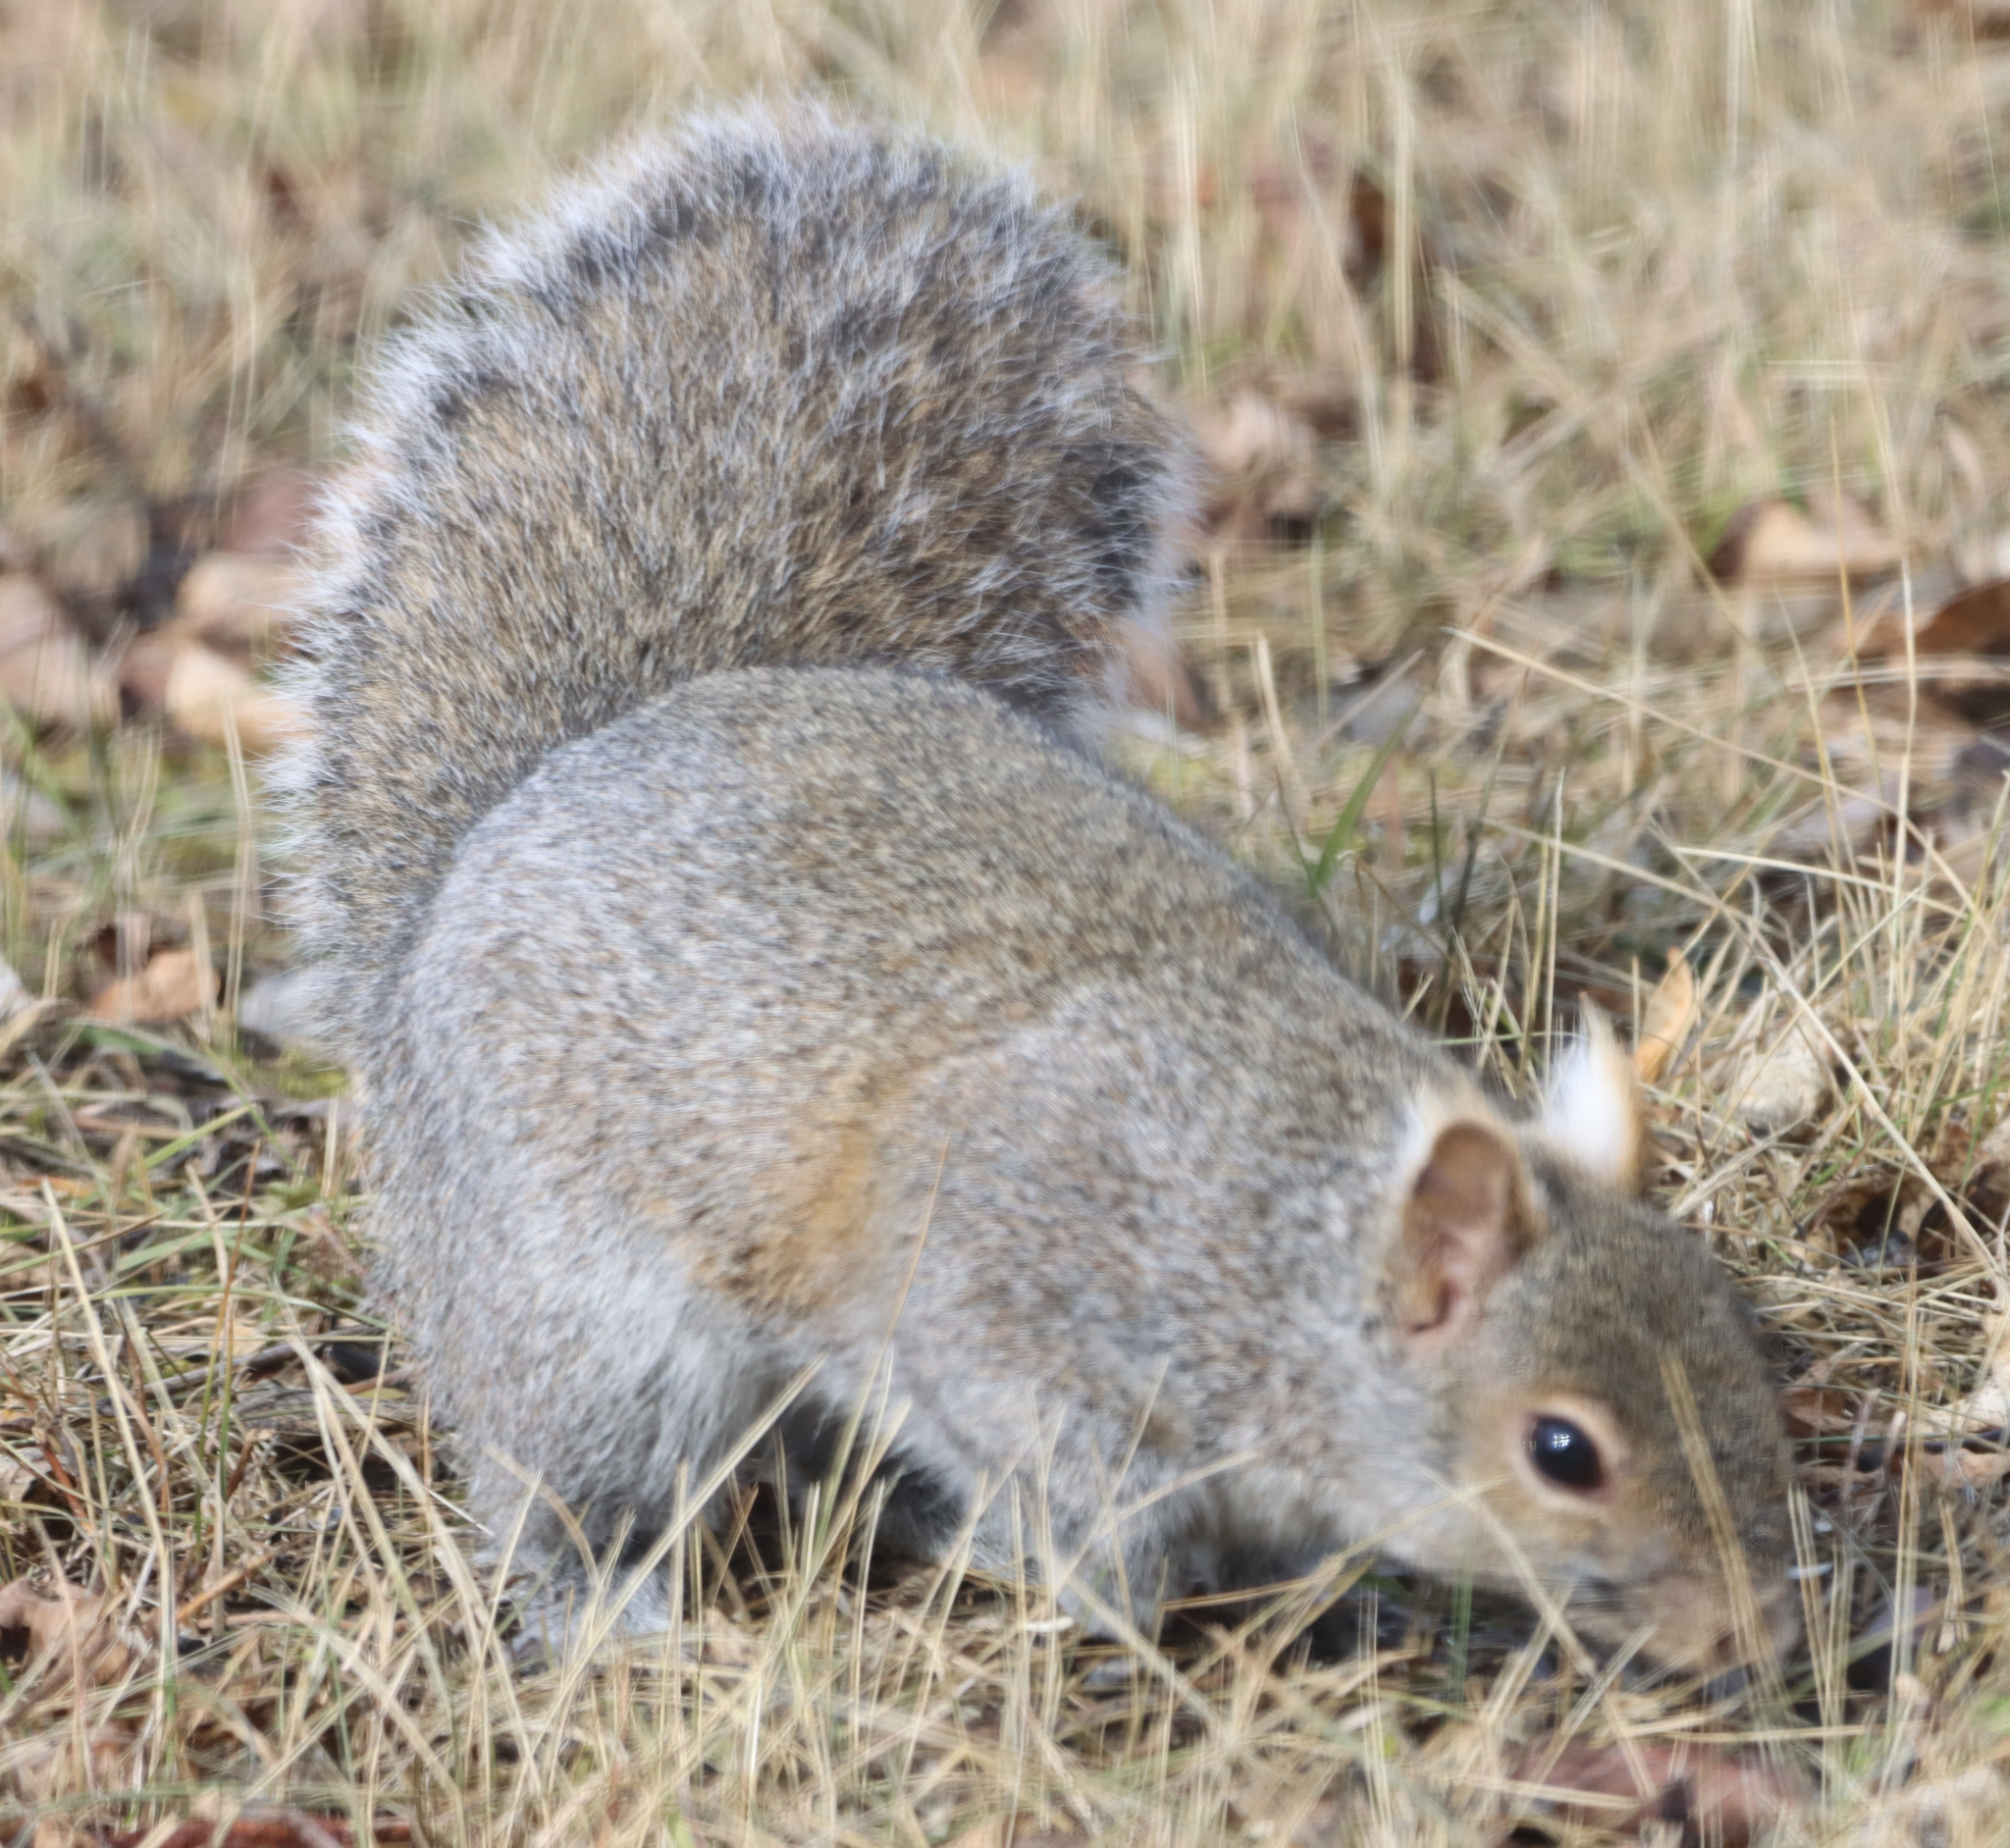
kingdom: Animalia
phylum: Chordata
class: Mammalia
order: Rodentia
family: Sciuridae
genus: Sciurus
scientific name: Sciurus carolinensis
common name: Eastern gray squirrel
